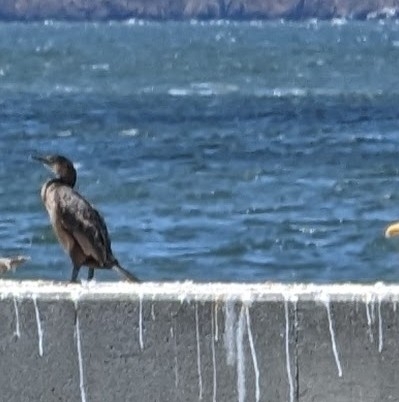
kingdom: Animalia
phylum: Chordata
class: Aves
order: Suliformes
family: Phalacrocoracidae
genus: Urile
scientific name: Urile penicillatus
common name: Brandt's cormorant
